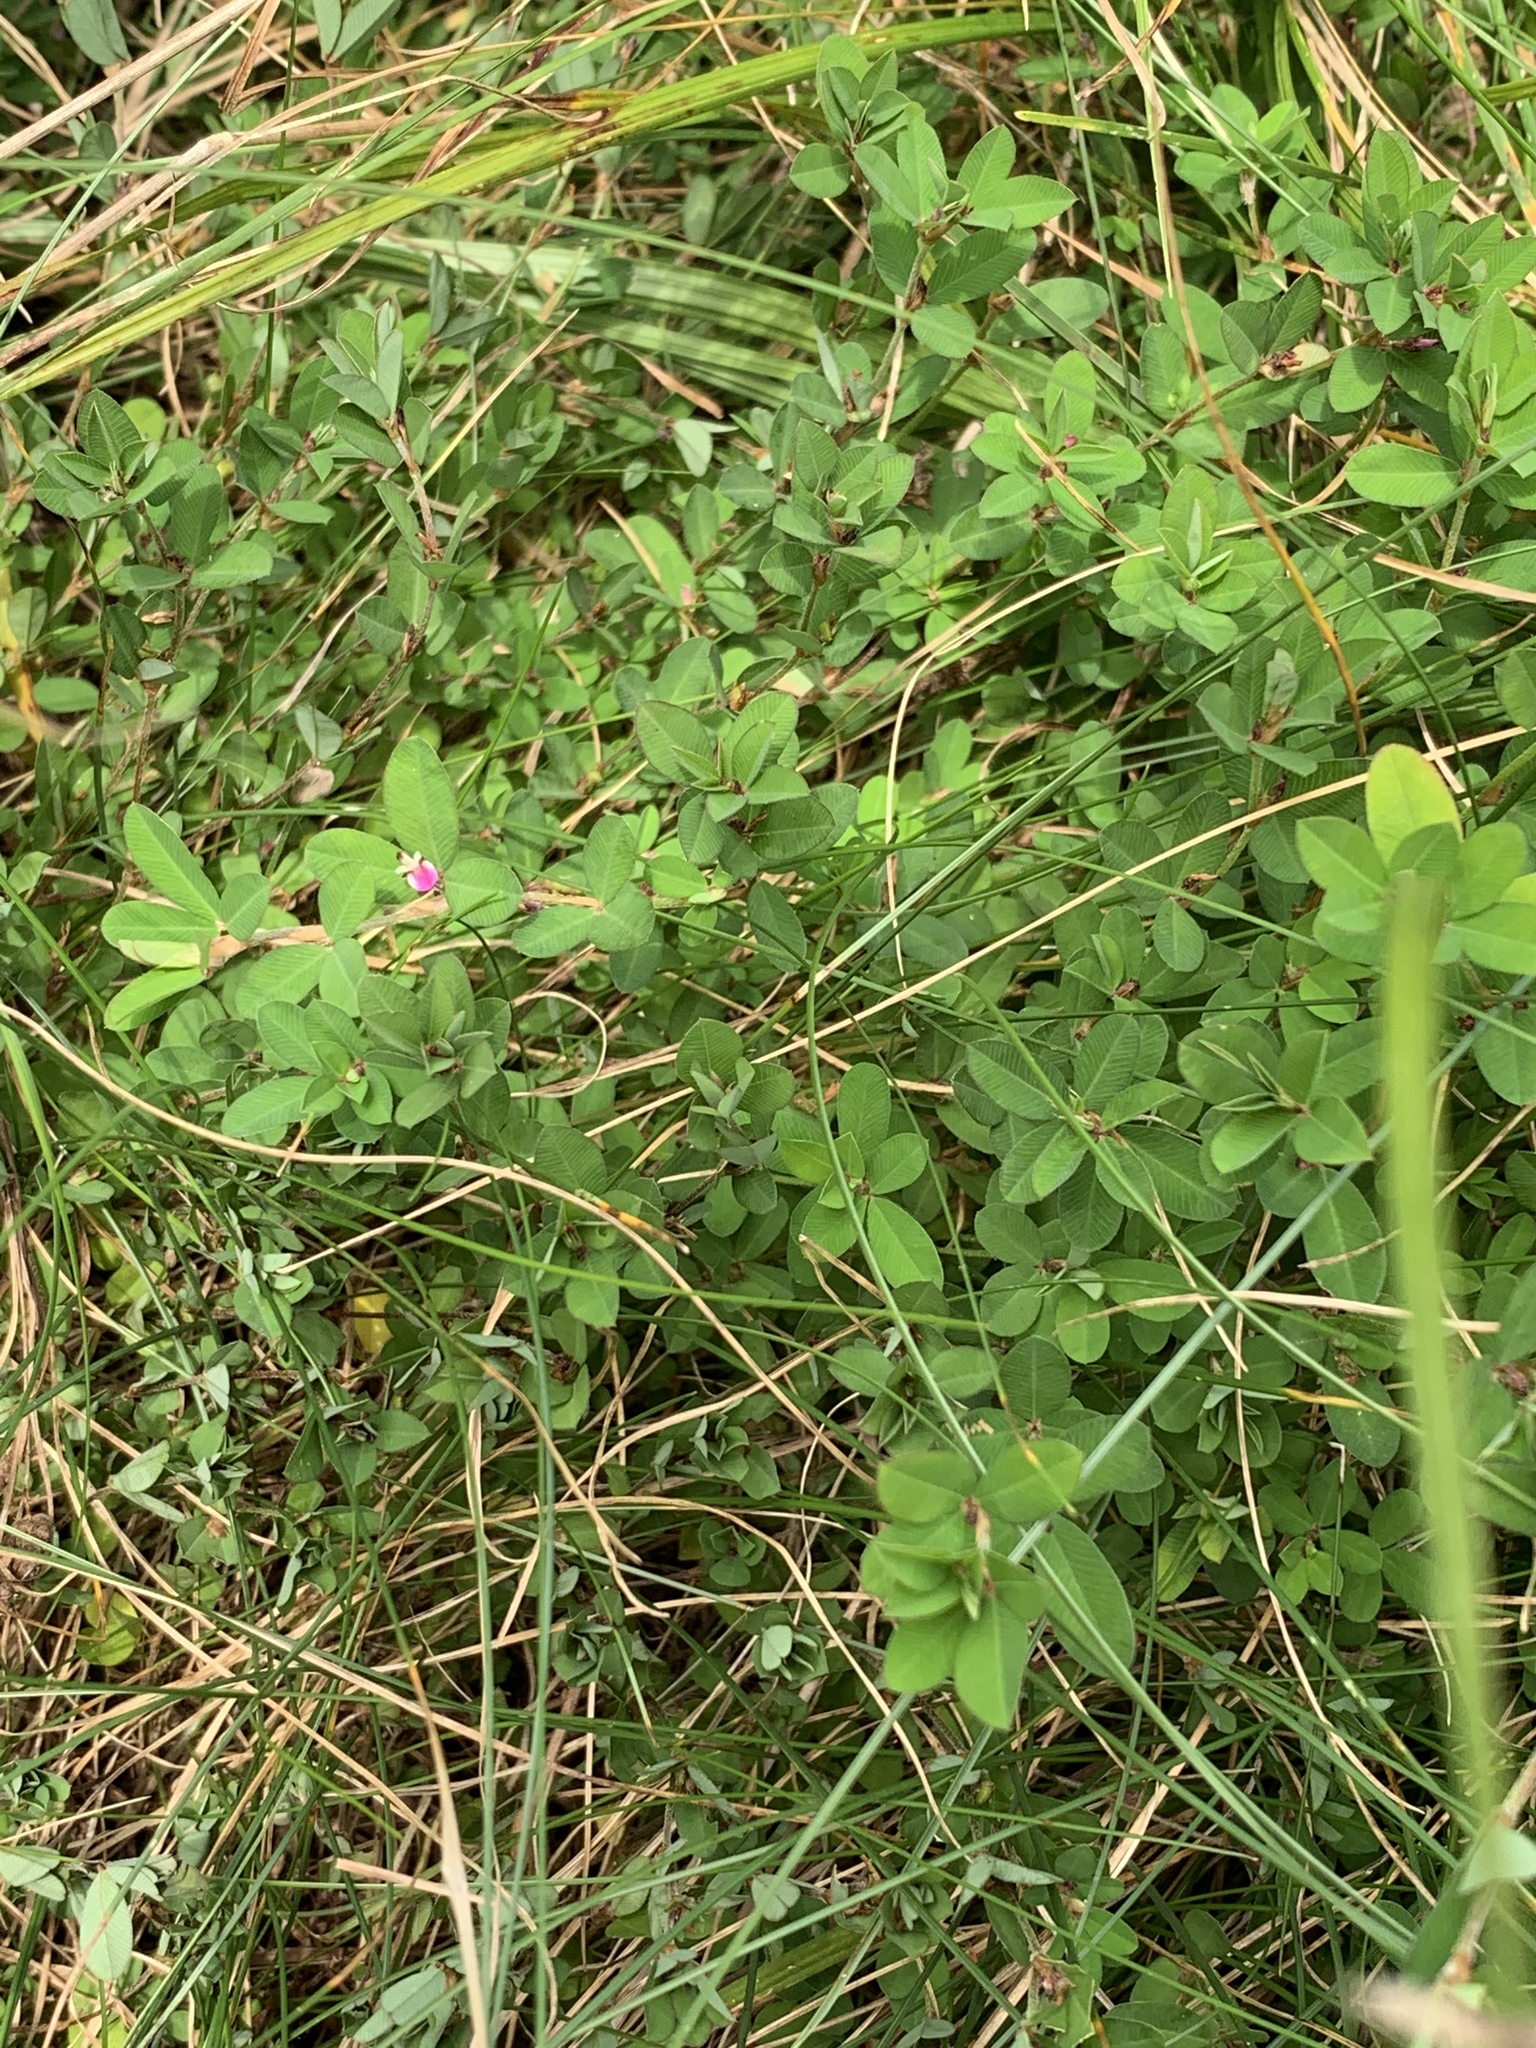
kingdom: Plantae
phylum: Tracheophyta
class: Magnoliopsida
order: Fabales
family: Fabaceae
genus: Kummerowia
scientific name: Kummerowia striata
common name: Japanese clover
